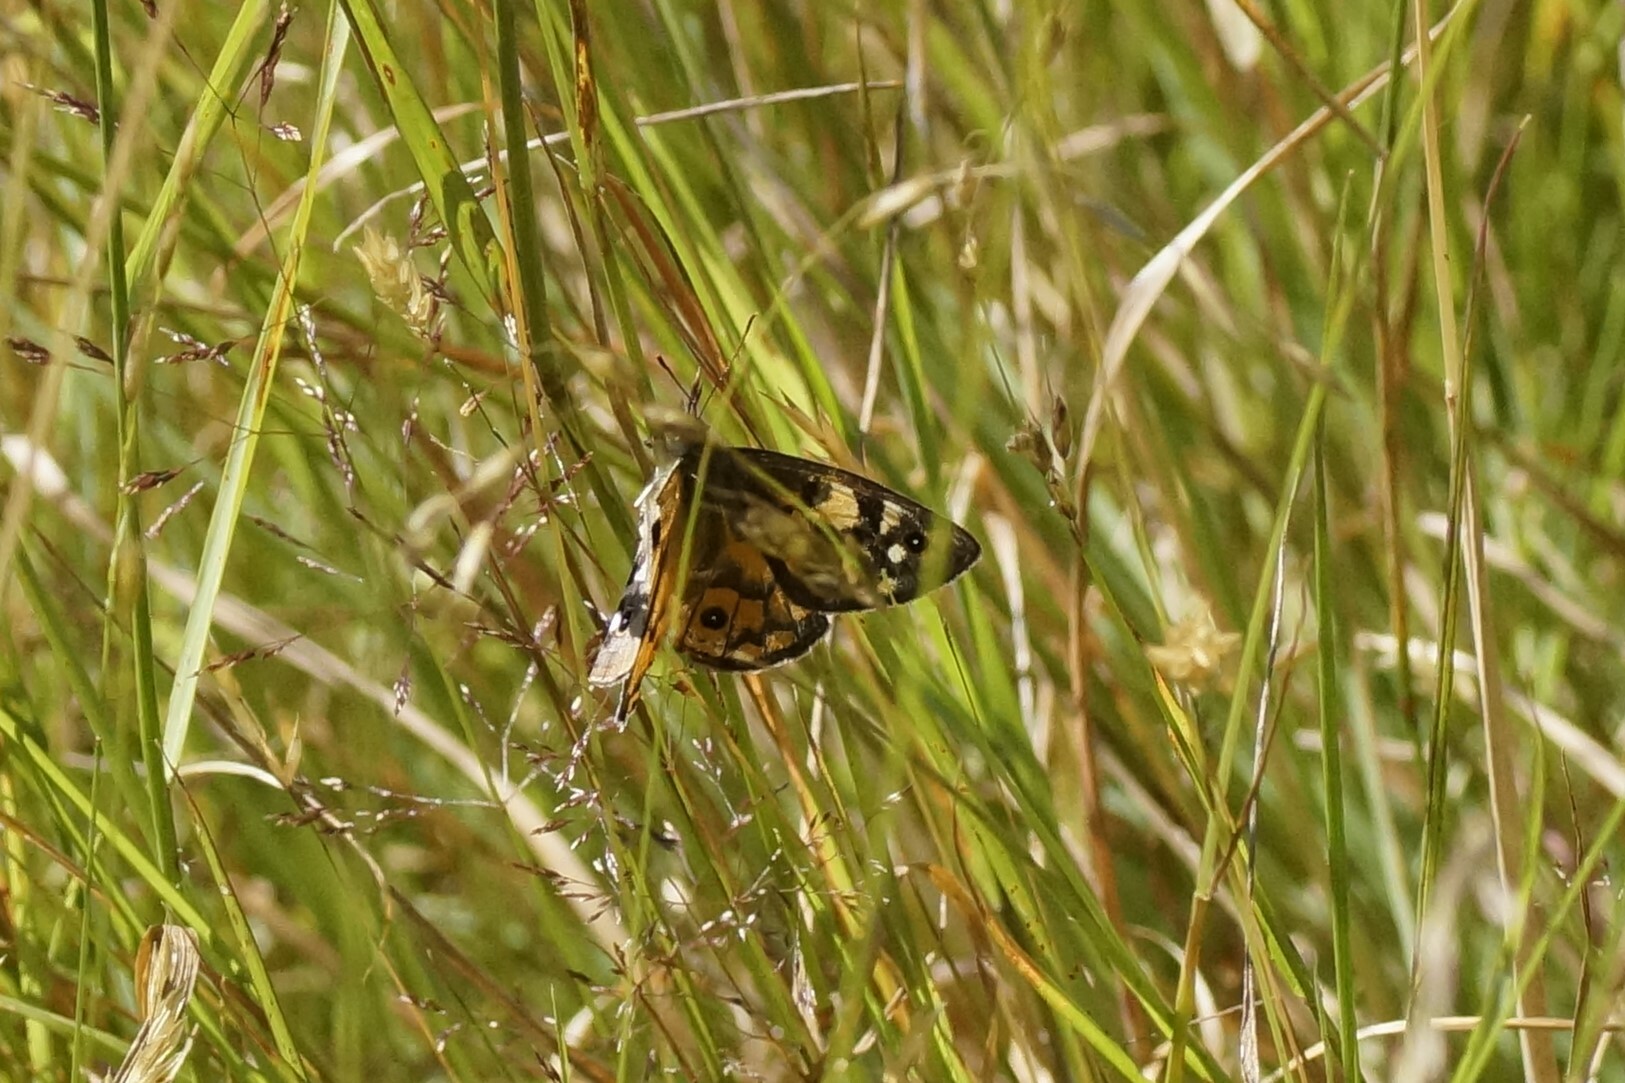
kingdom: Animalia
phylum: Arthropoda
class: Insecta
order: Lepidoptera
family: Nymphalidae
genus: Heteronympha
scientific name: Heteronympha penelope
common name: Shouldered brown
